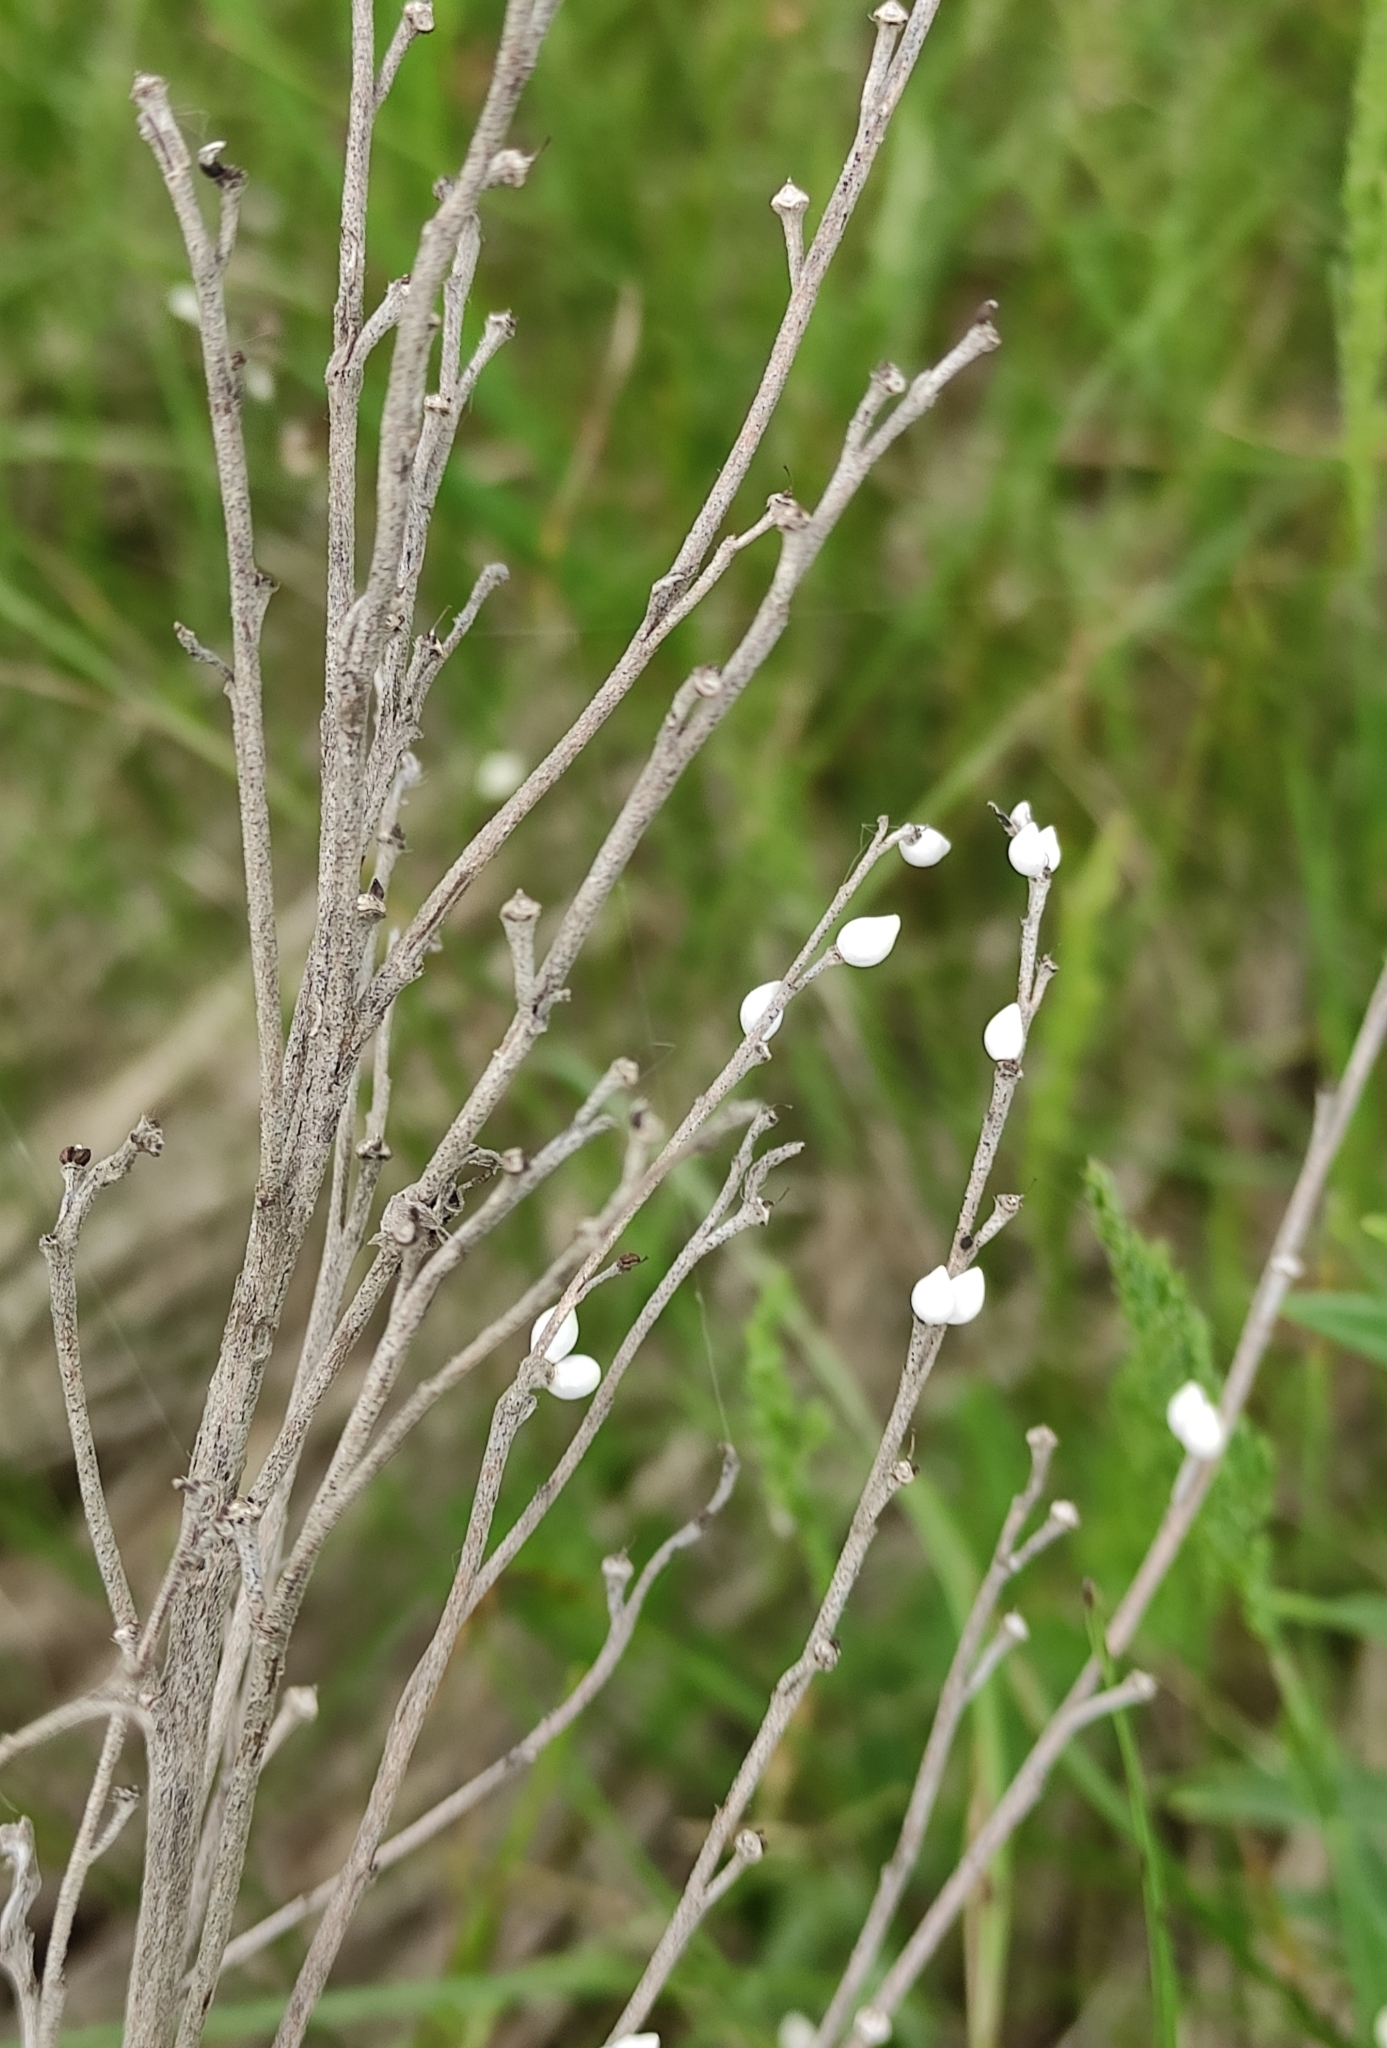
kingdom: Plantae
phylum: Tracheophyta
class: Magnoliopsida
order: Boraginales
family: Boraginaceae
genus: Lithospermum
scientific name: Lithospermum officinale
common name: Common gromwell
